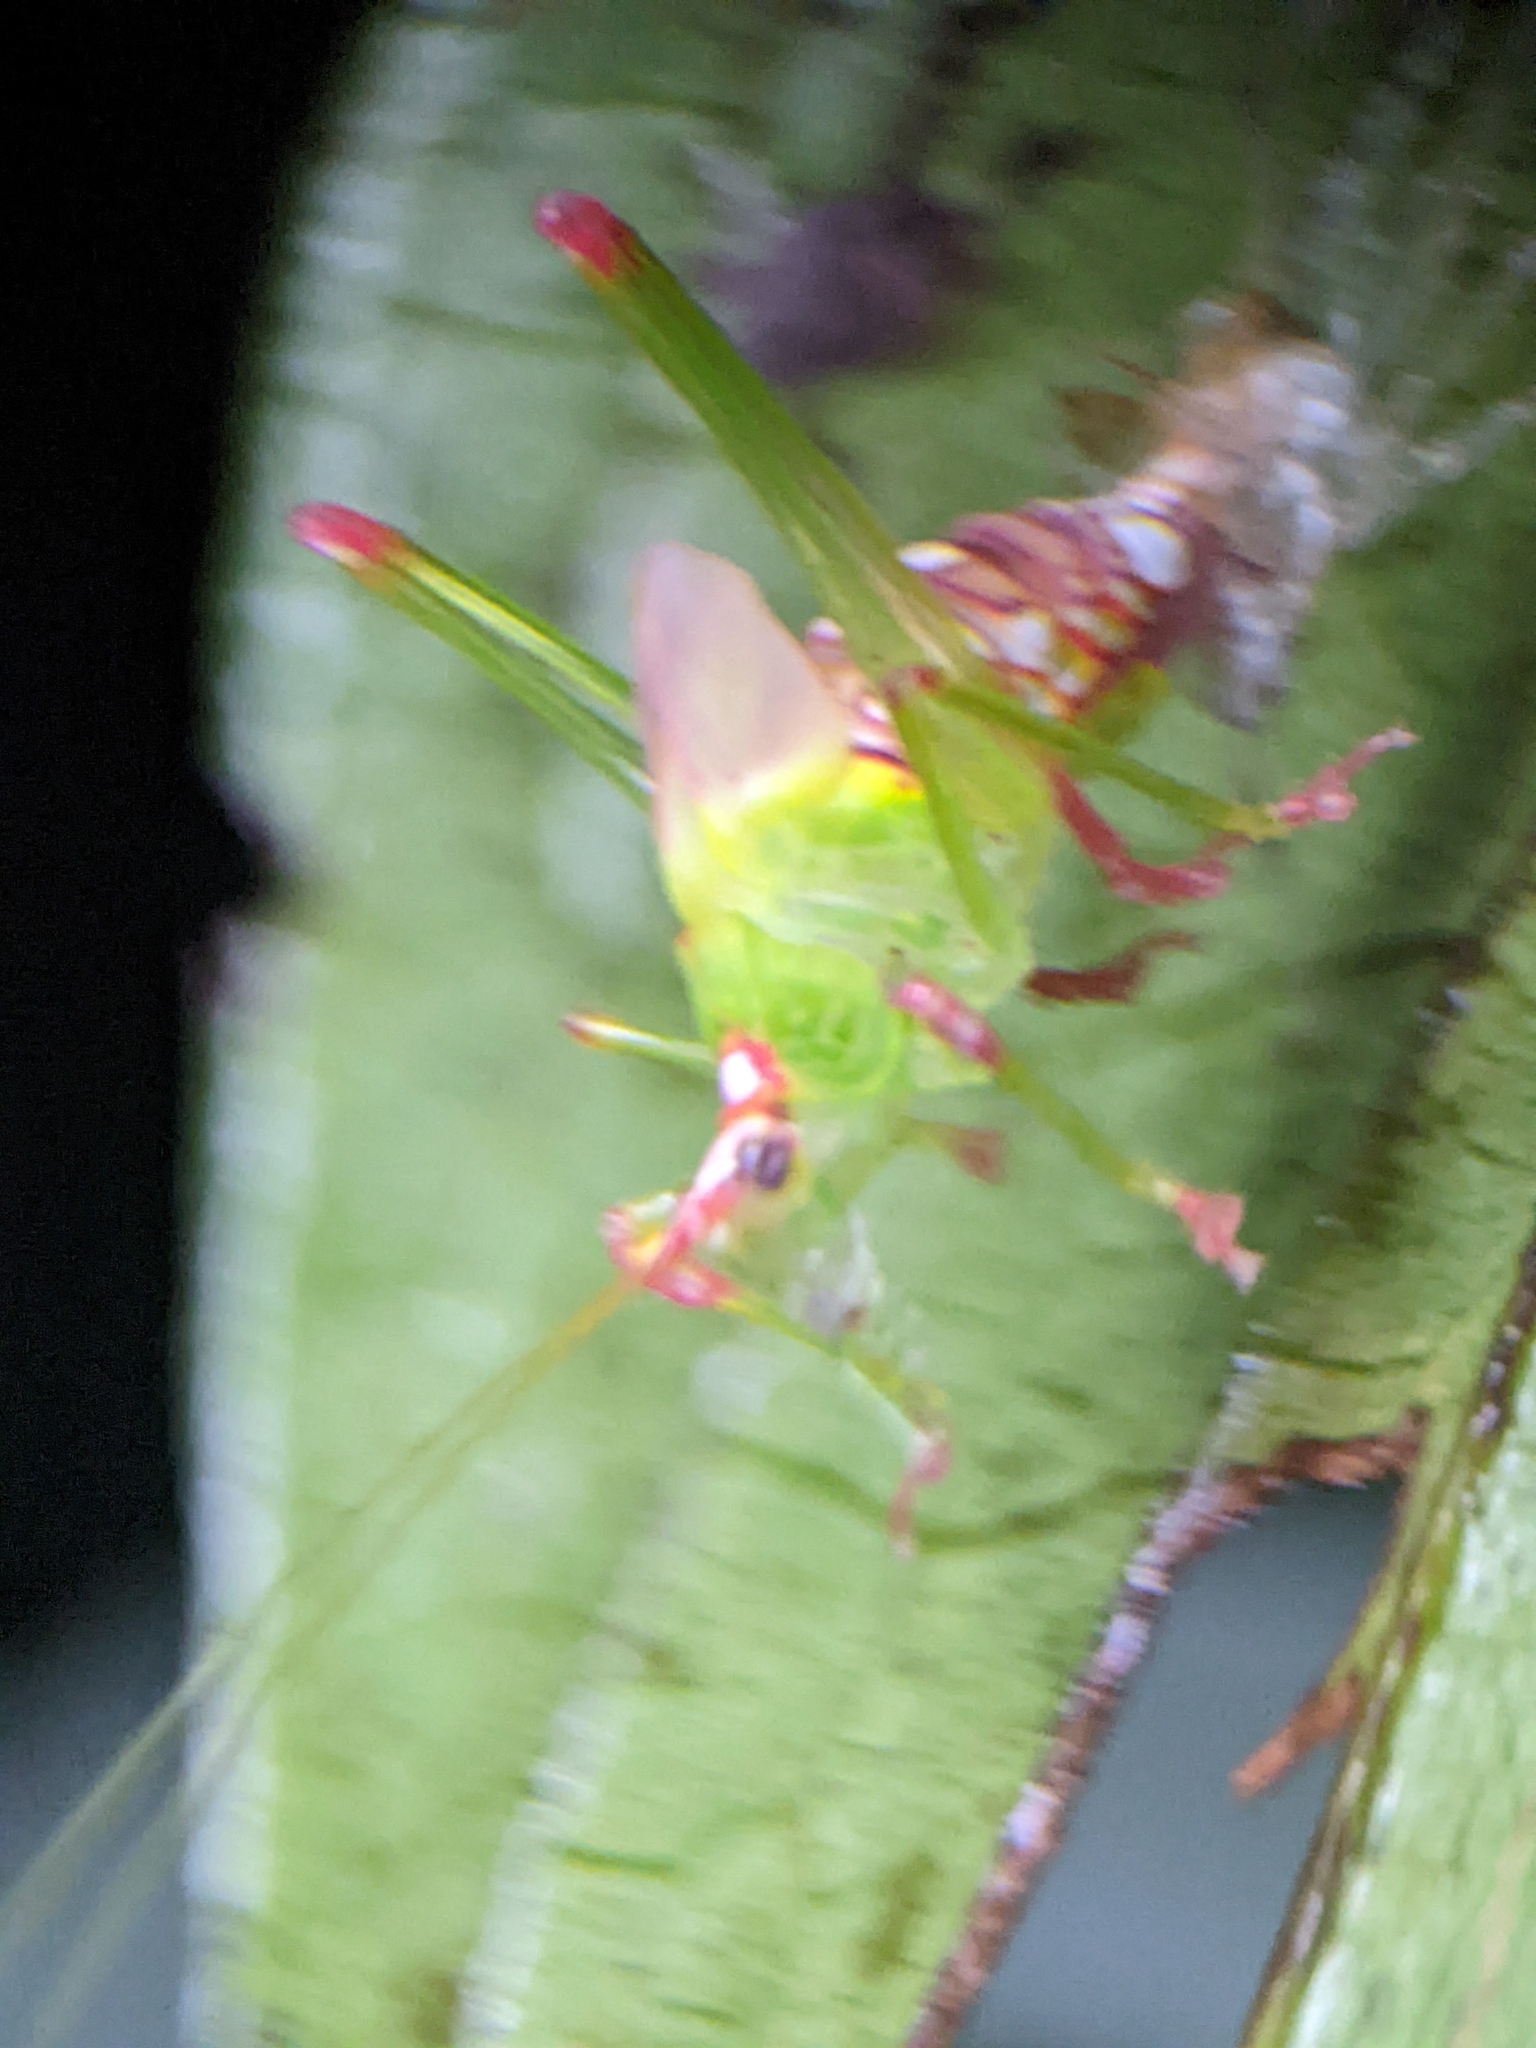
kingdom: Animalia
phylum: Arthropoda
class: Insecta
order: Orthoptera
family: Tettigoniidae
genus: Deflorita
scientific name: Deflorita argentata
